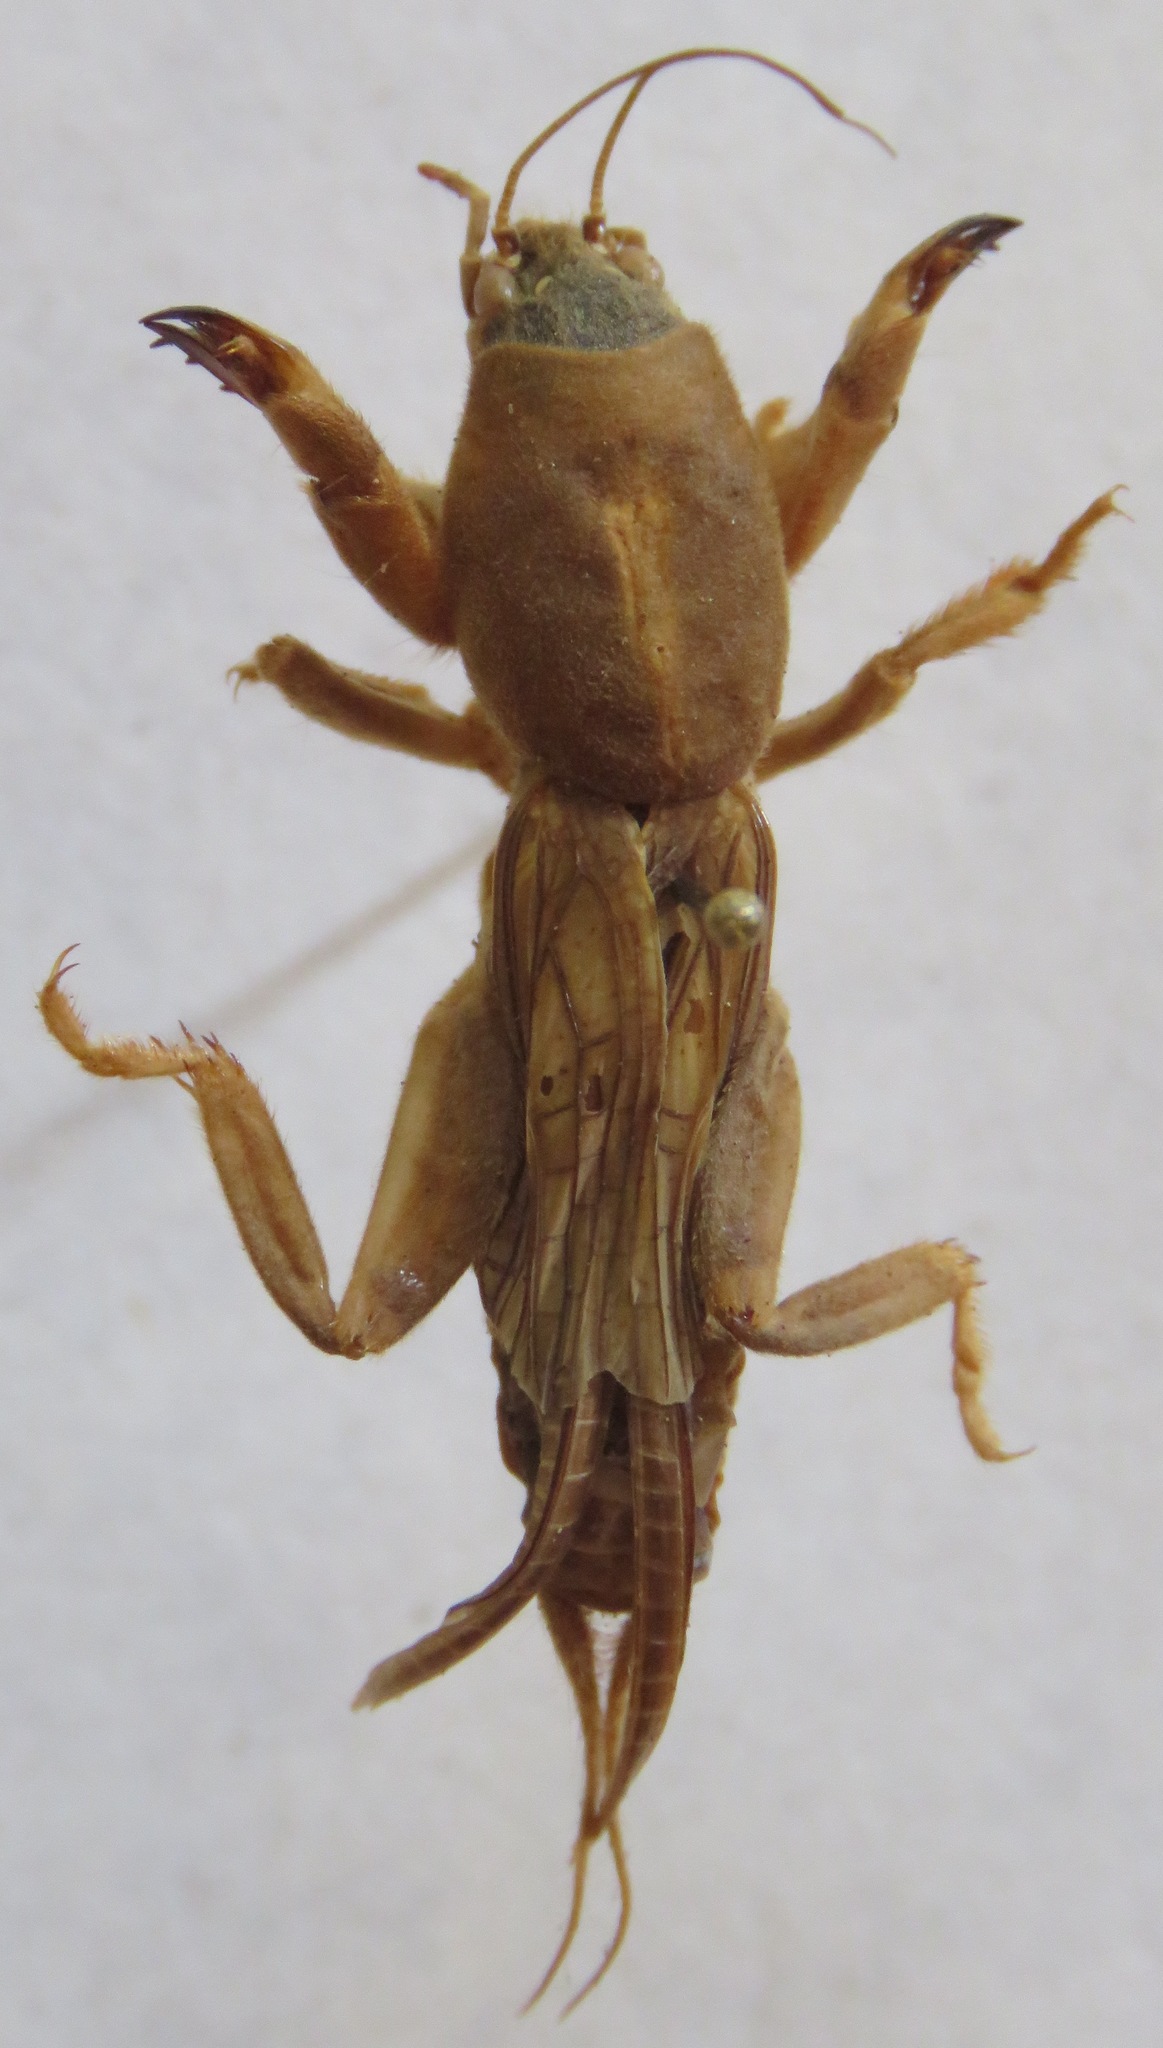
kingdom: Animalia
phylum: Arthropoda
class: Insecta
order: Orthoptera
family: Gryllotalpidae
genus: Neocurtilla
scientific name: Neocurtilla hexadactyla
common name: Northern mole cricket
